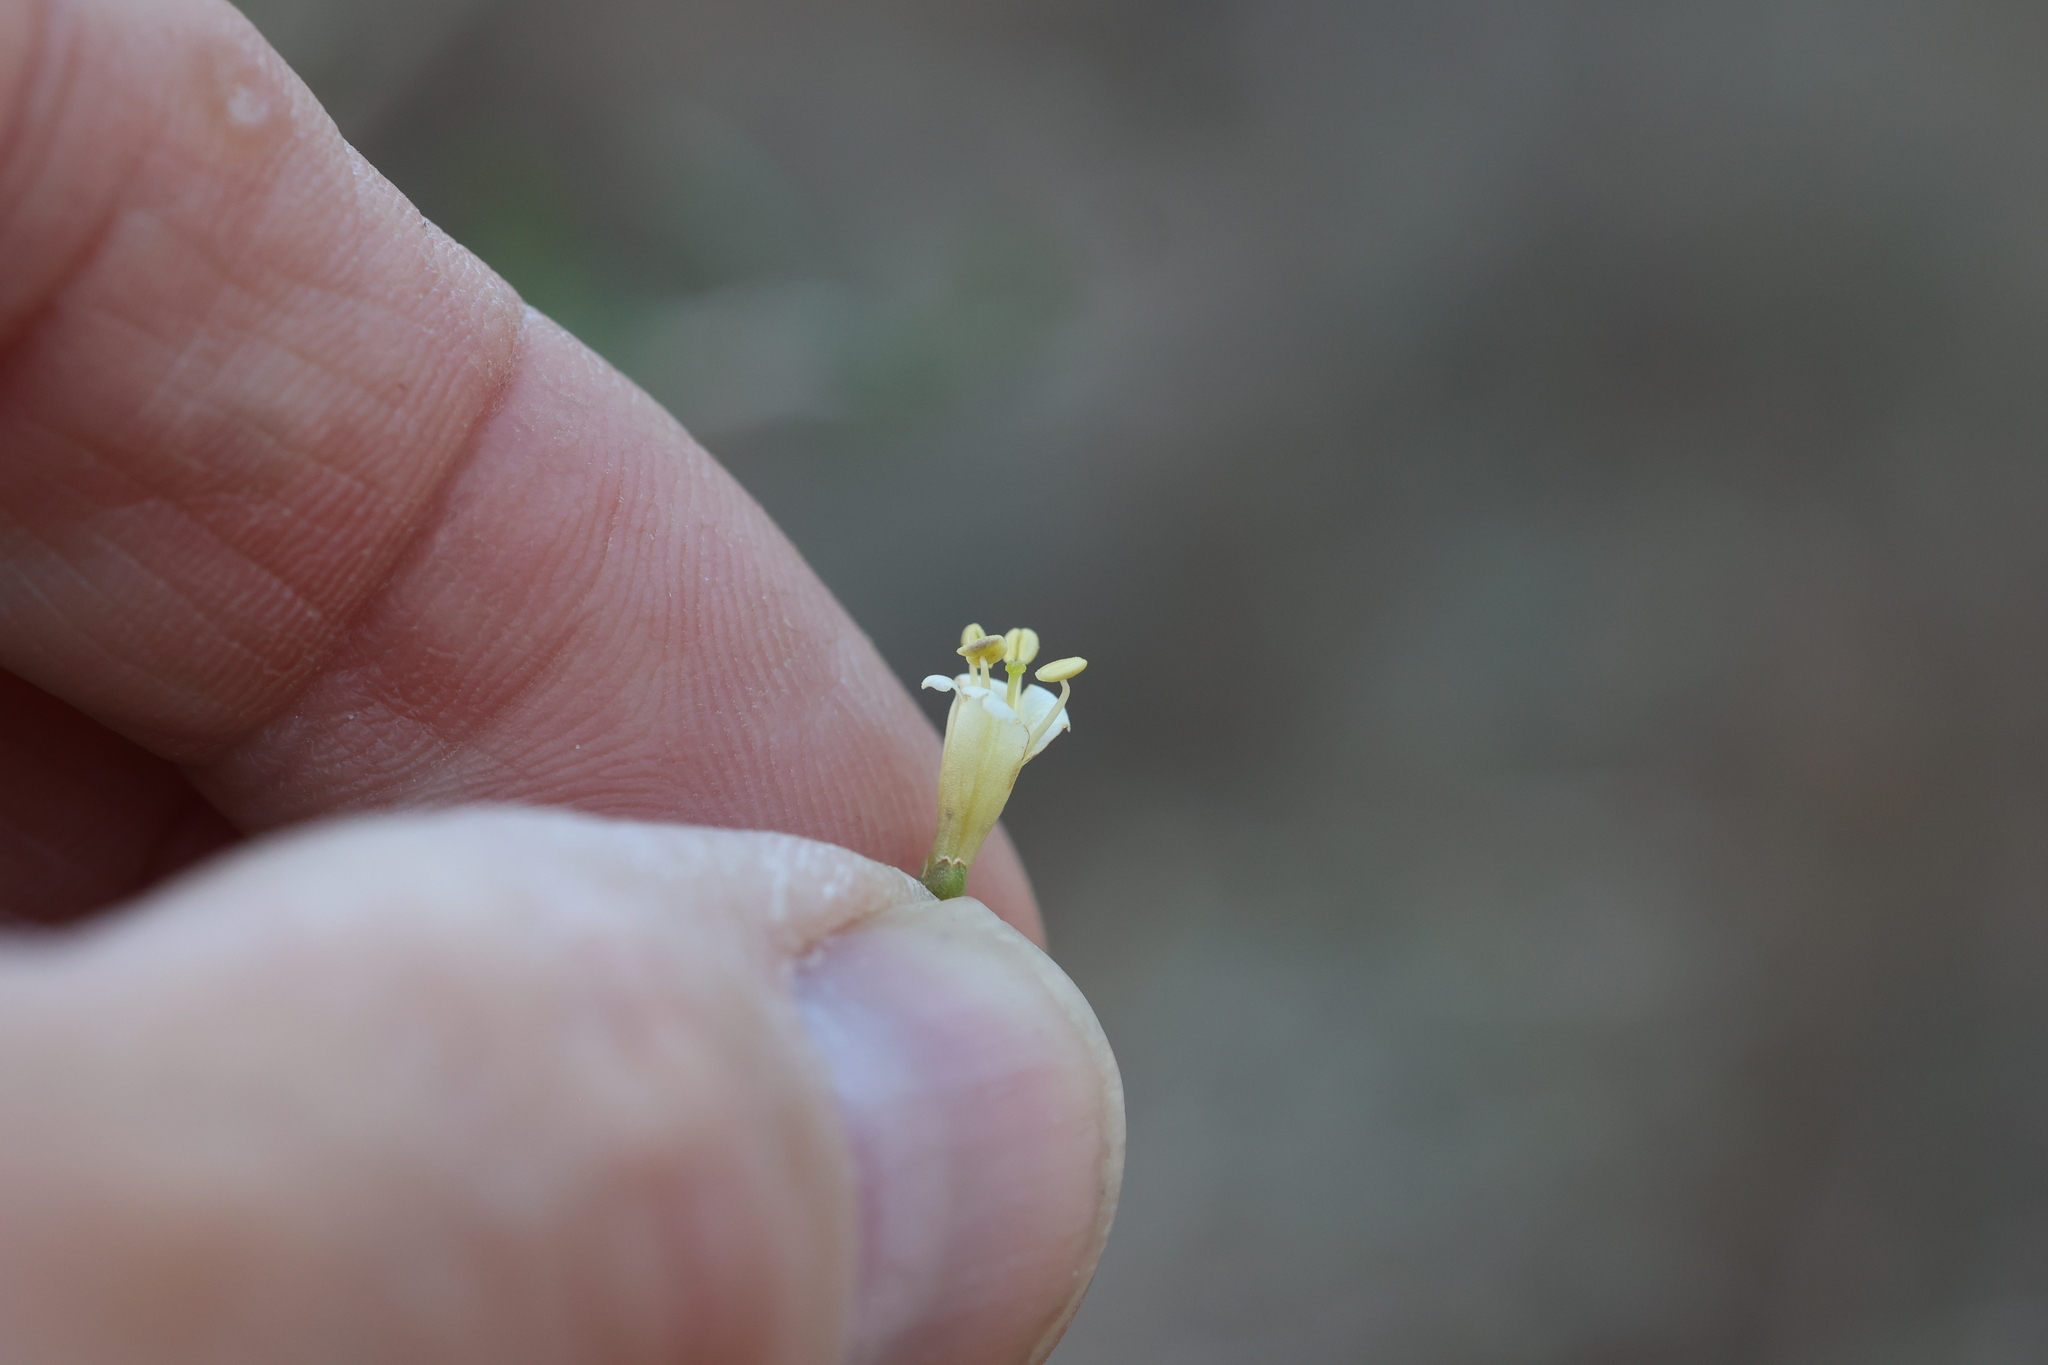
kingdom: Plantae
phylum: Tracheophyta
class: Magnoliopsida
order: Solanales
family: Solanaceae
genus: Lycium
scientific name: Lycium berlandieri
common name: Berlandier wolfberry
